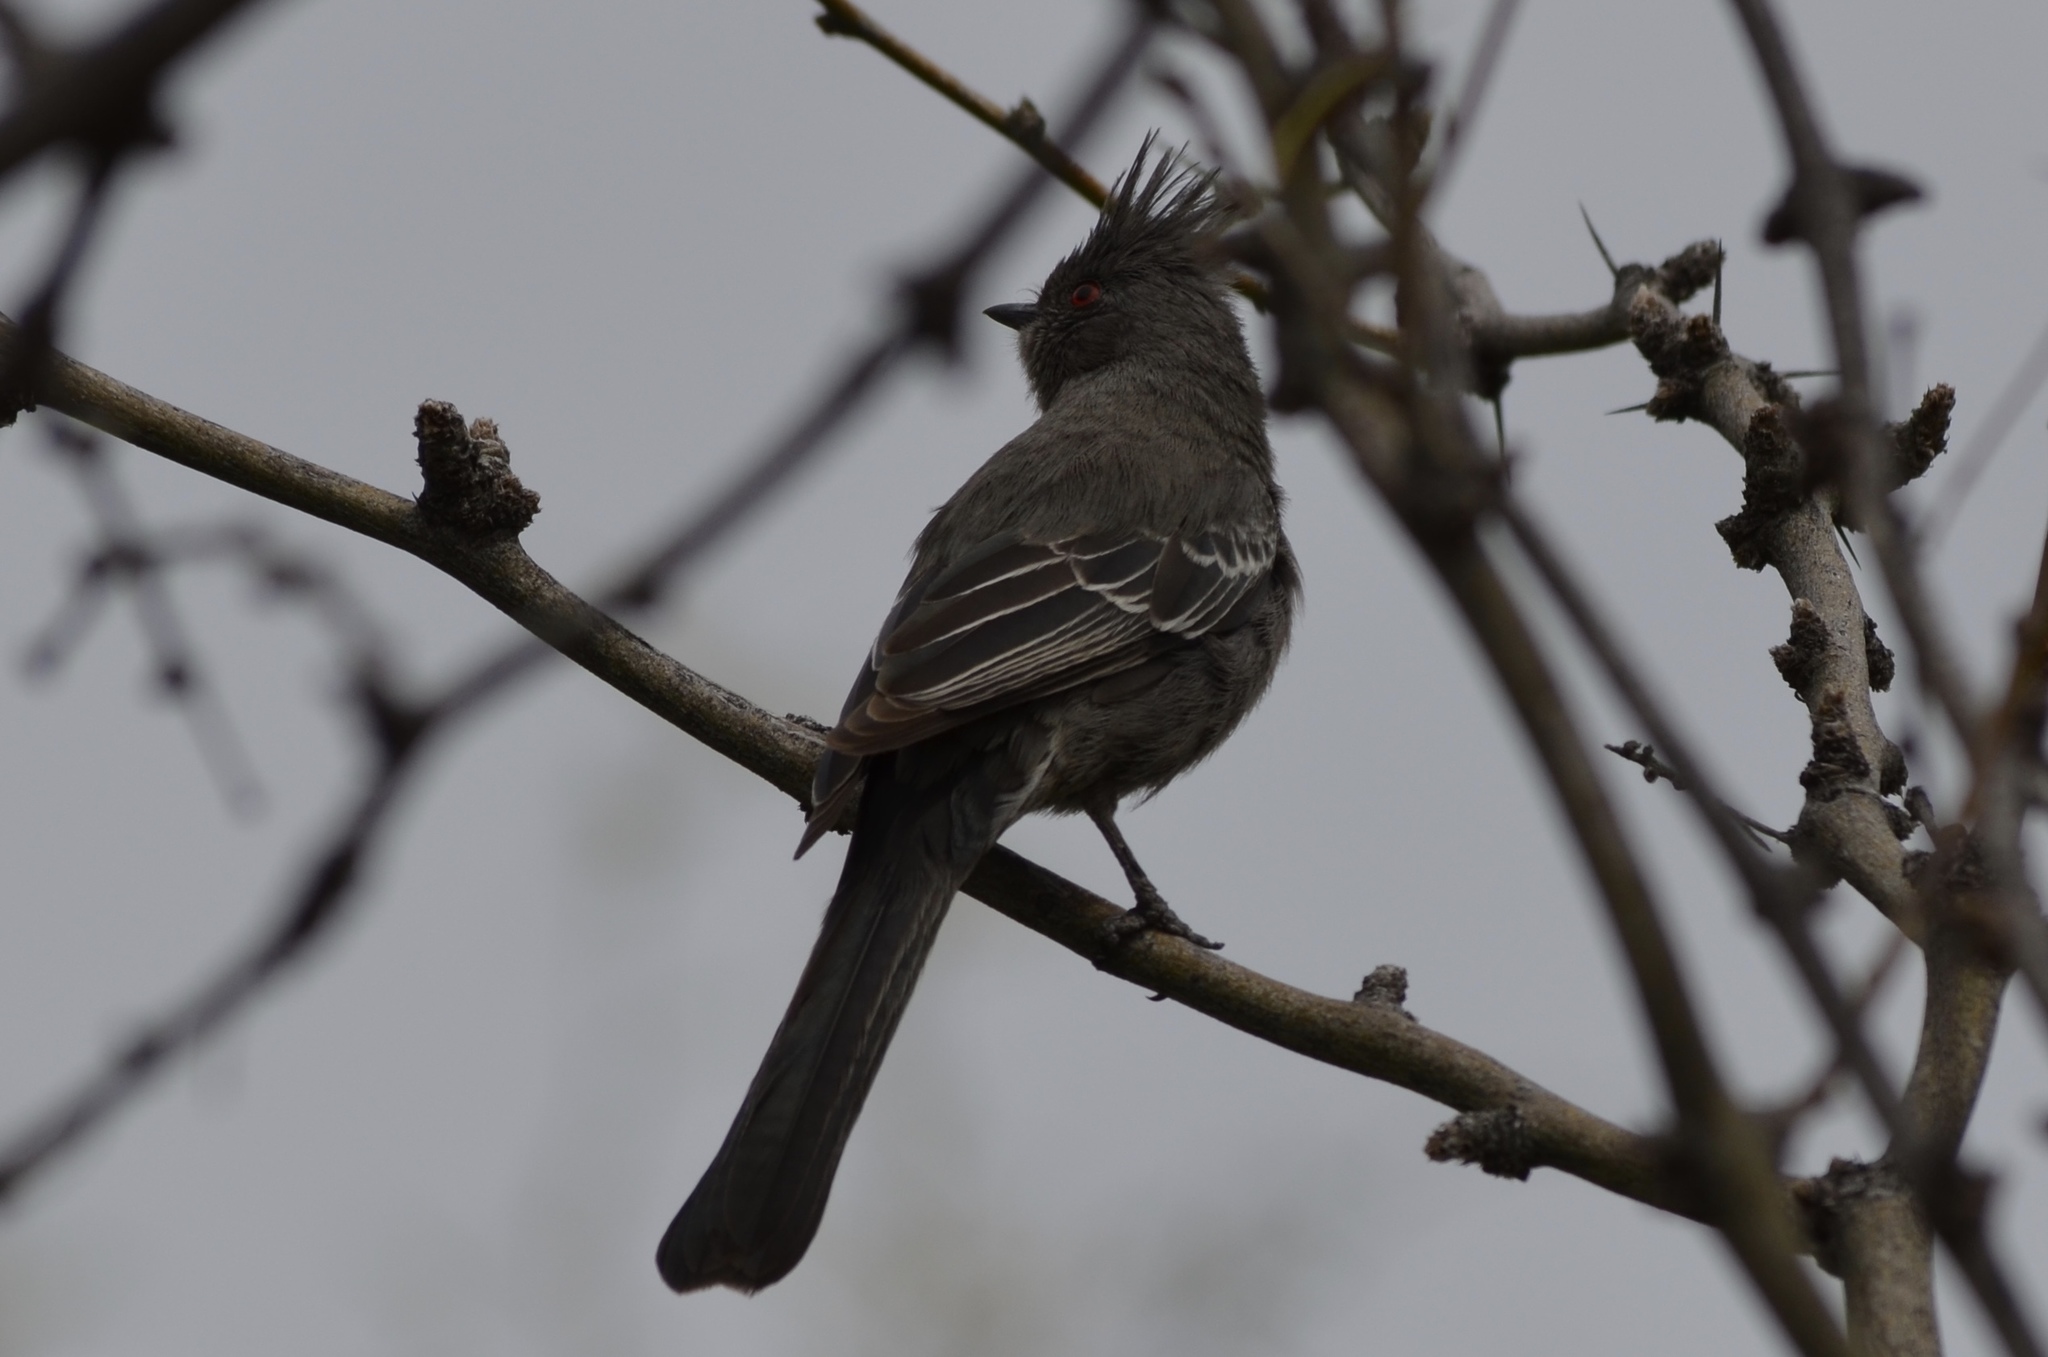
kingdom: Animalia
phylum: Chordata
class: Aves
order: Passeriformes
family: Ptilogonatidae
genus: Phainopepla
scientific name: Phainopepla nitens
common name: Phainopepla
